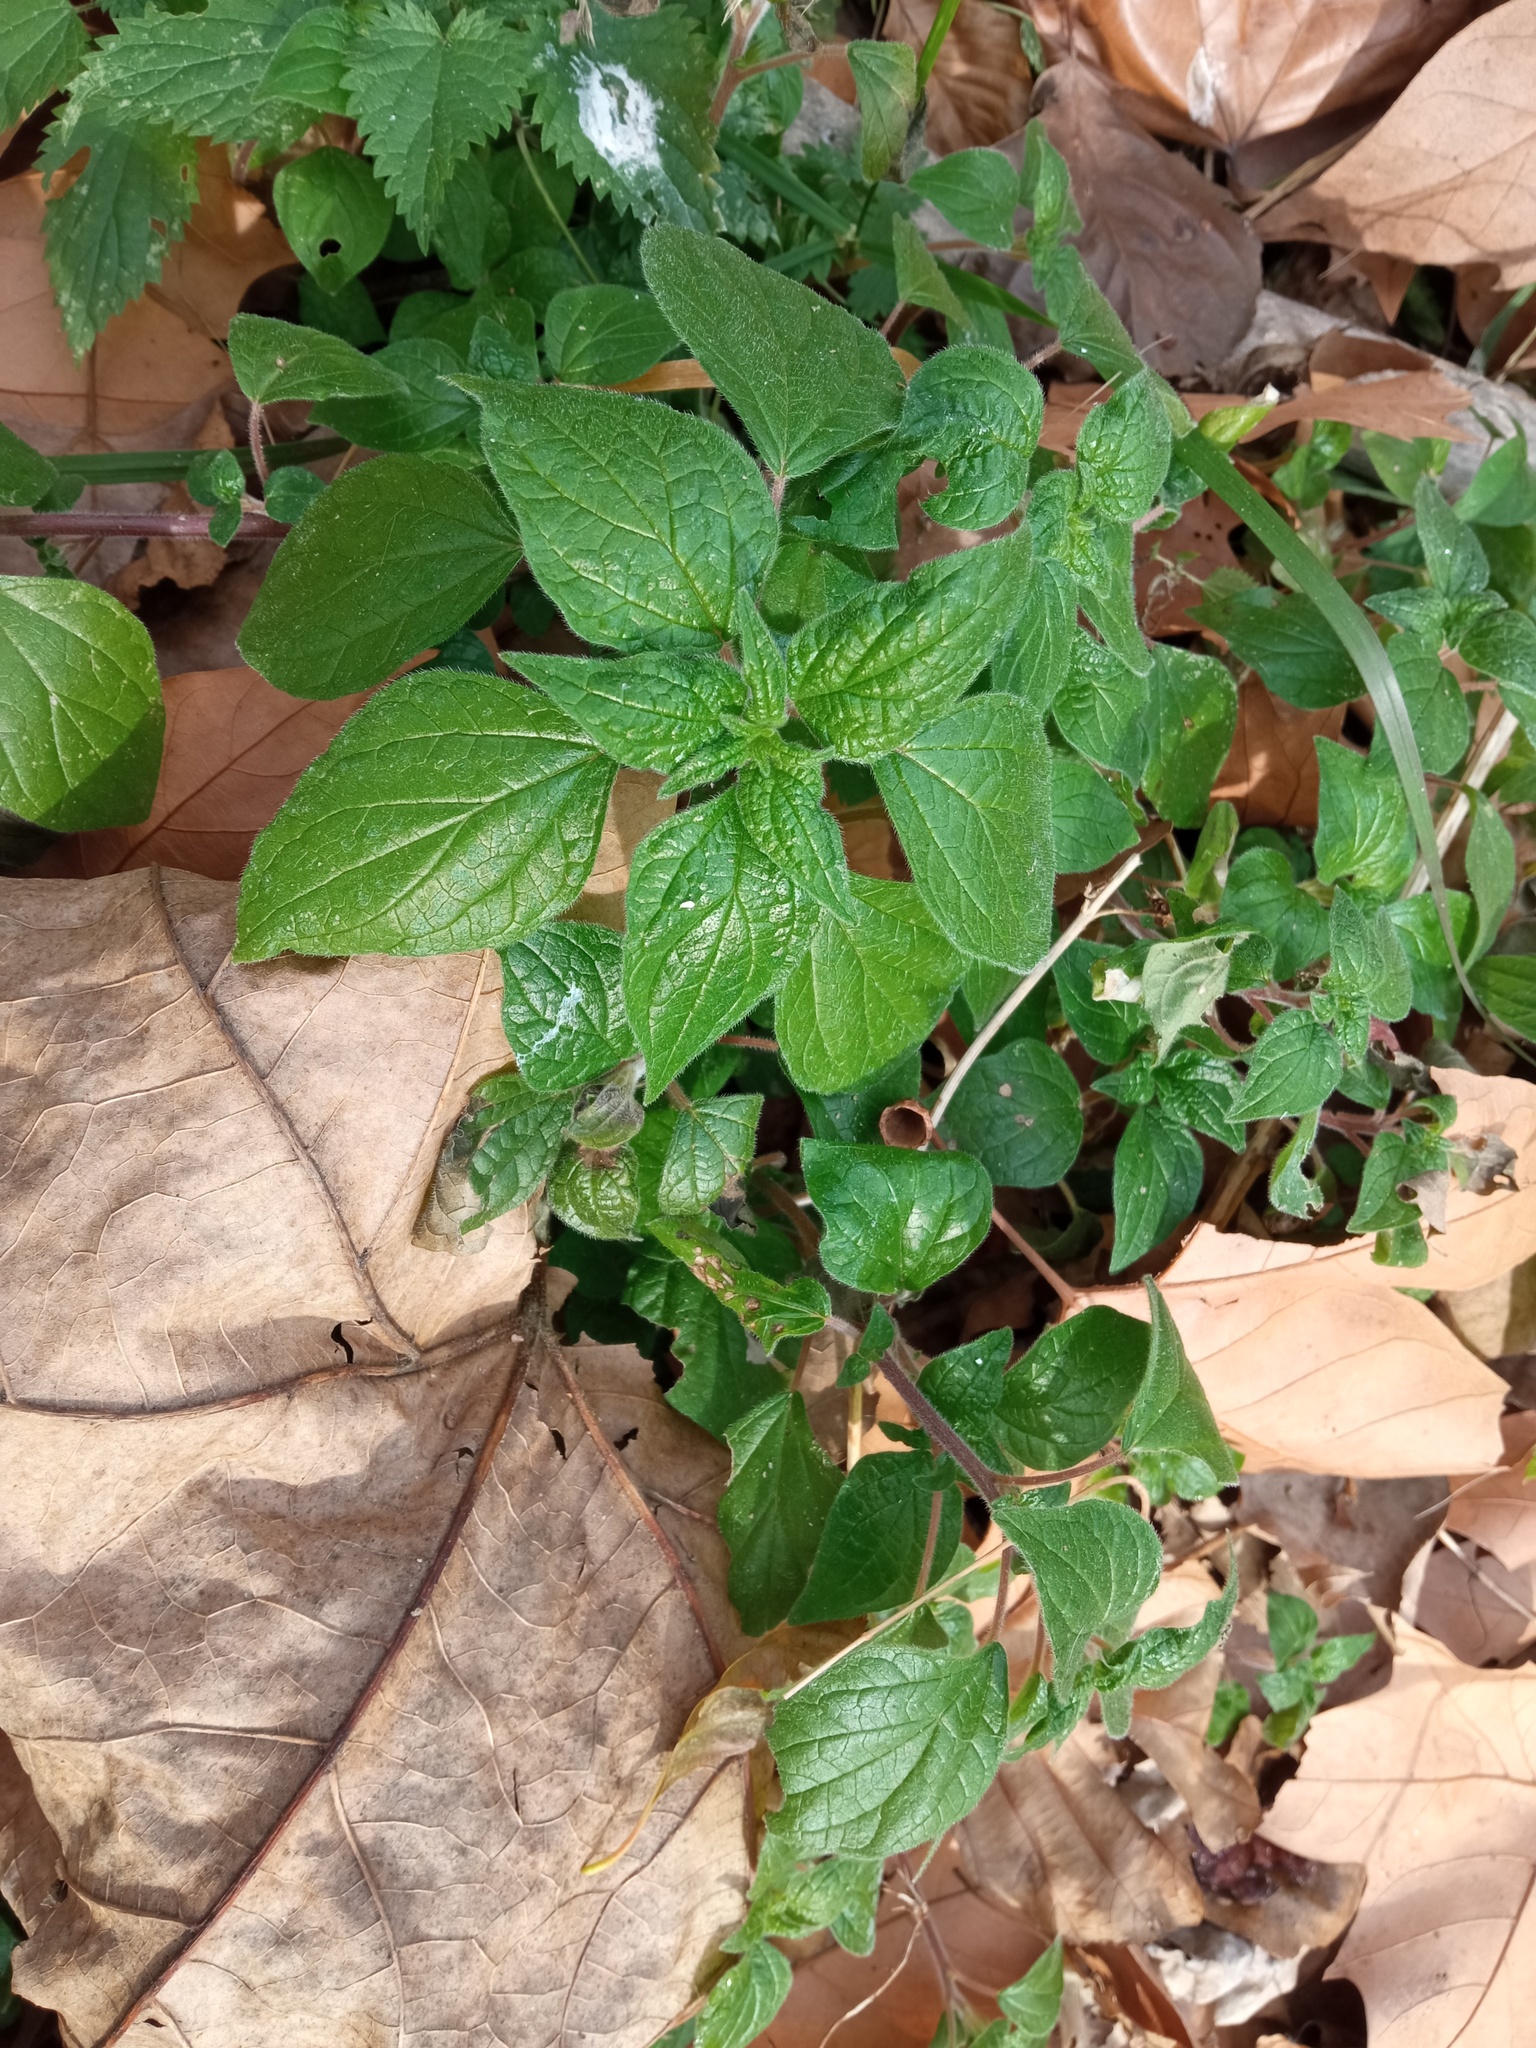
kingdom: Plantae
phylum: Tracheophyta
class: Magnoliopsida
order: Rosales
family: Urticaceae
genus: Parietaria
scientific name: Parietaria judaica
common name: Pellitory-of-the-wall
